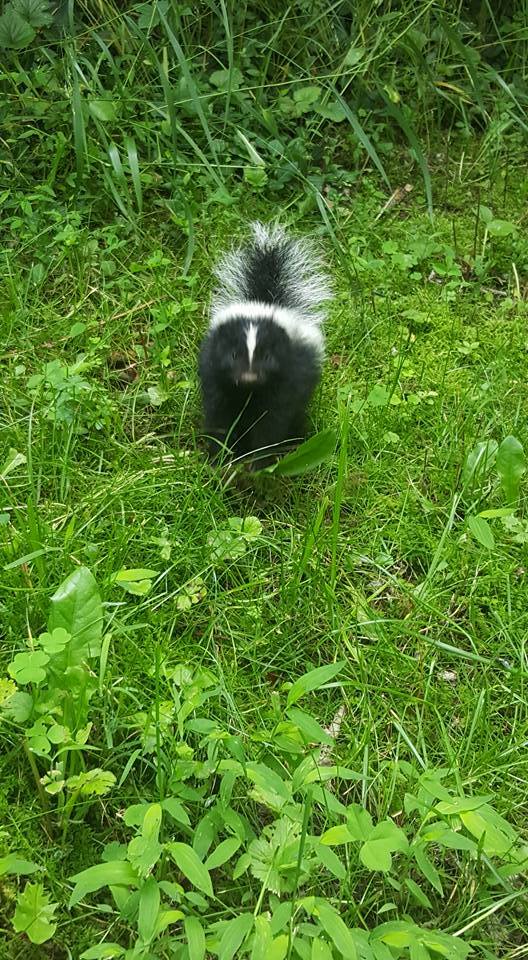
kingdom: Animalia
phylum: Chordata
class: Mammalia
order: Carnivora
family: Mephitidae
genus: Mephitis
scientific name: Mephitis mephitis
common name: Striped skunk
